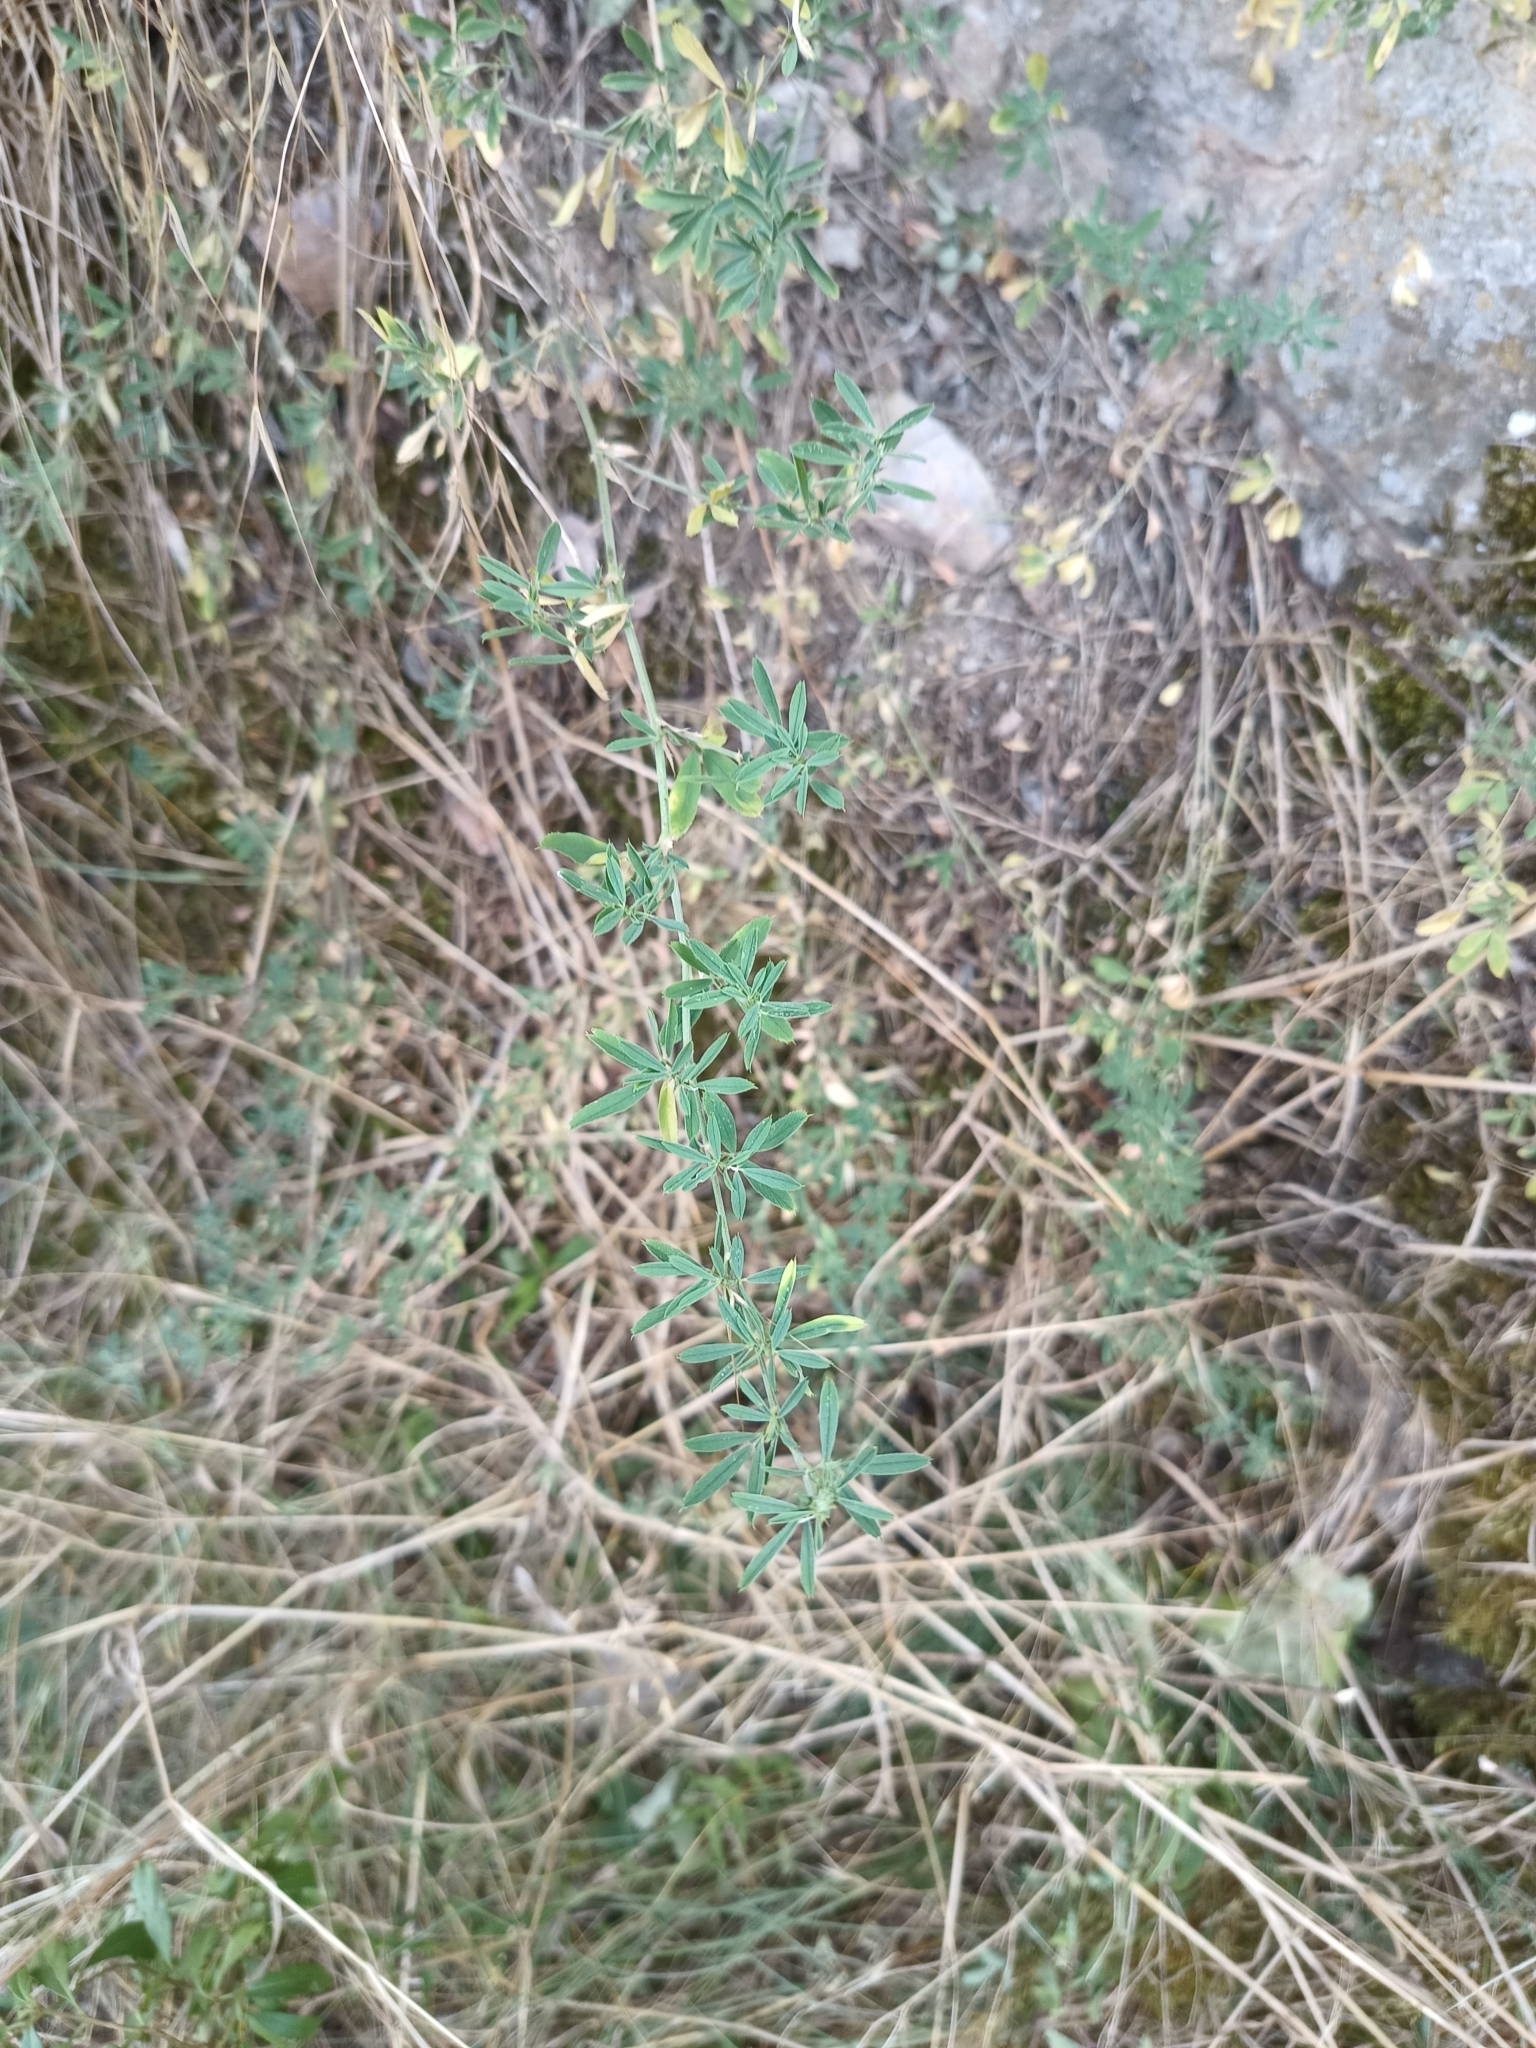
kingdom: Plantae
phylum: Tracheophyta
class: Magnoliopsida
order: Fabales
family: Fabaceae
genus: Medicago
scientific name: Medicago falcata
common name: Sickle medick
